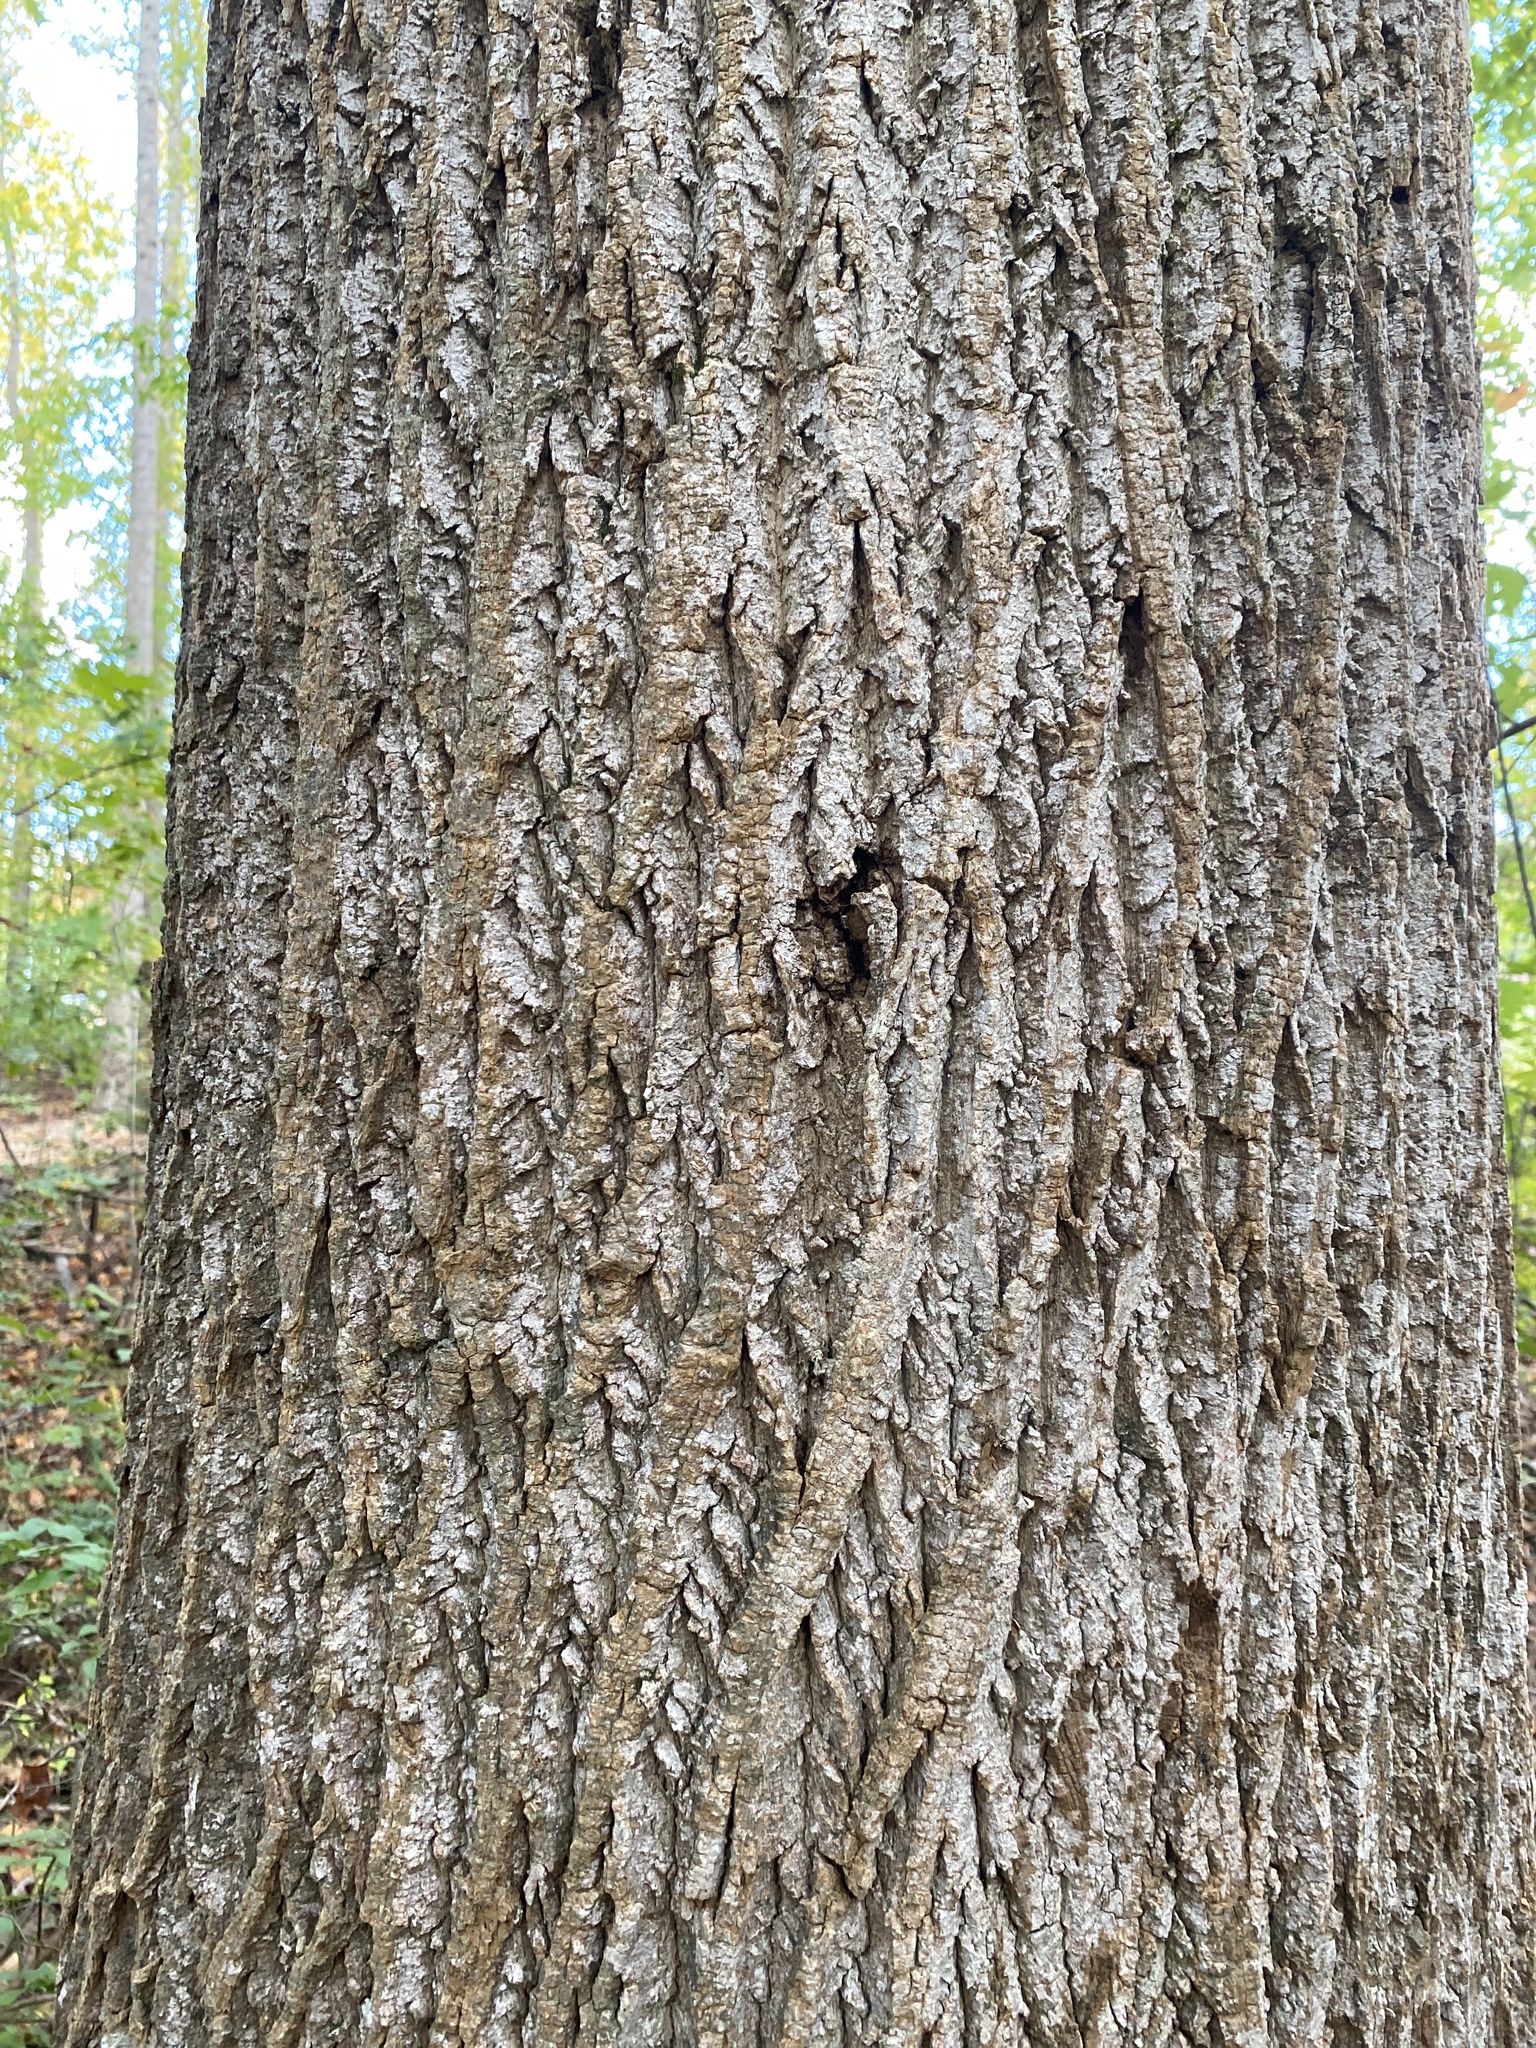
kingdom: Plantae
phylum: Tracheophyta
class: Magnoliopsida
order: Magnoliales
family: Magnoliaceae
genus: Liriodendron
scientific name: Liriodendron tulipifera
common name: Tulip tree
